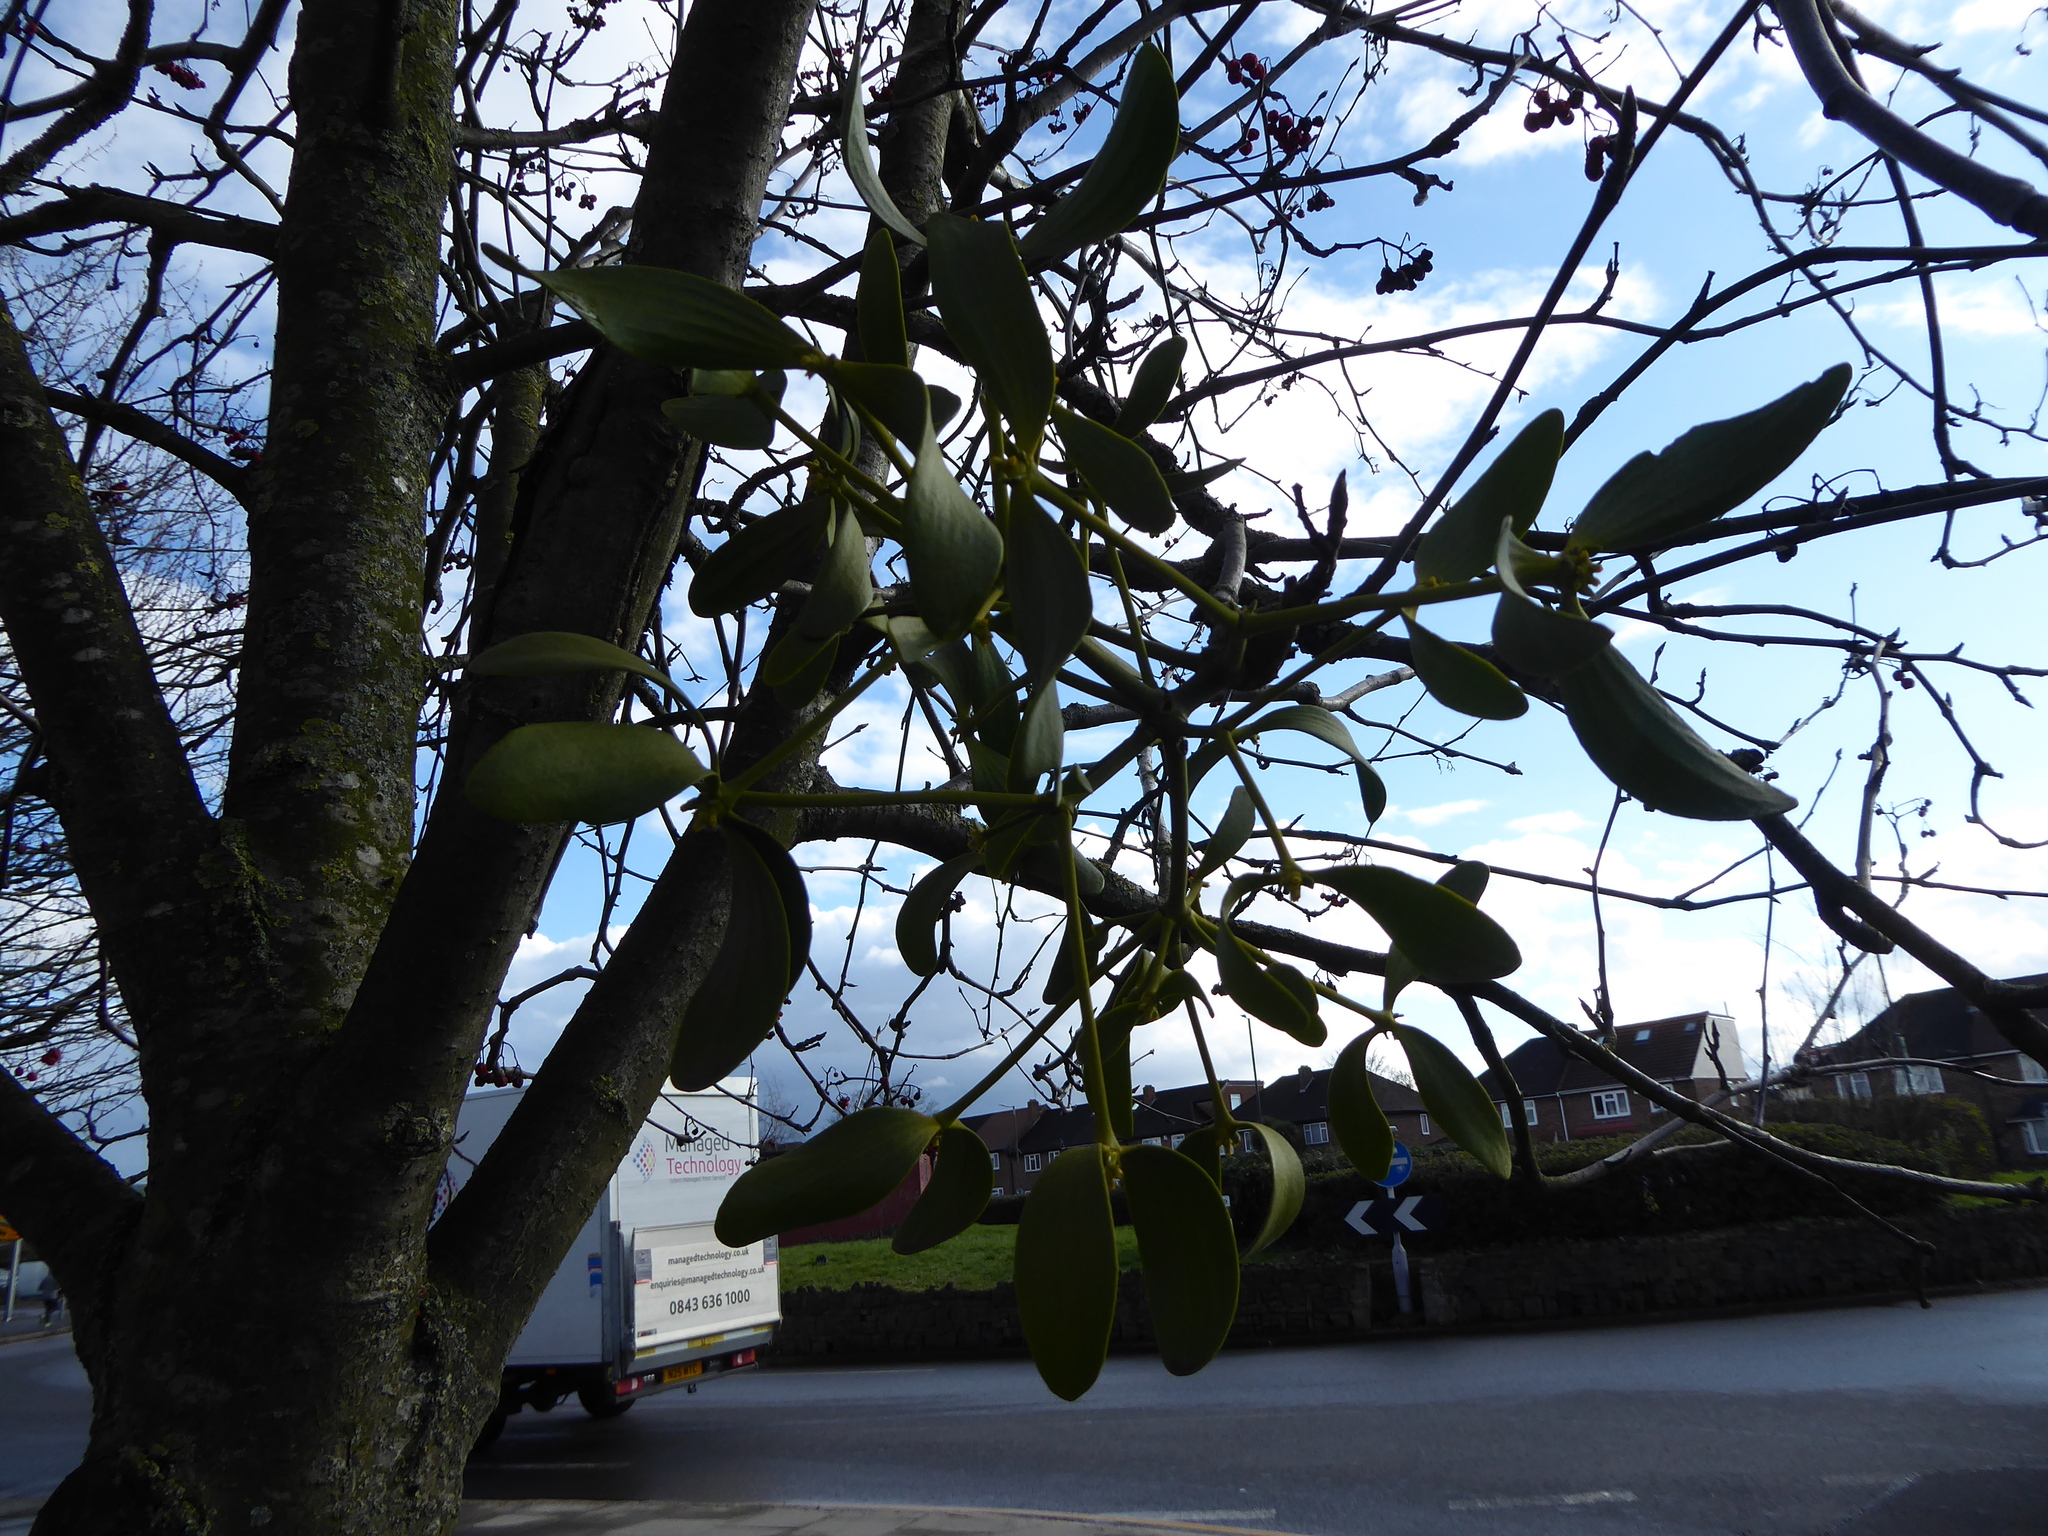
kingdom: Plantae
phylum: Tracheophyta
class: Magnoliopsida
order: Santalales
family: Viscaceae
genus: Viscum
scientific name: Viscum album
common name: Mistletoe
